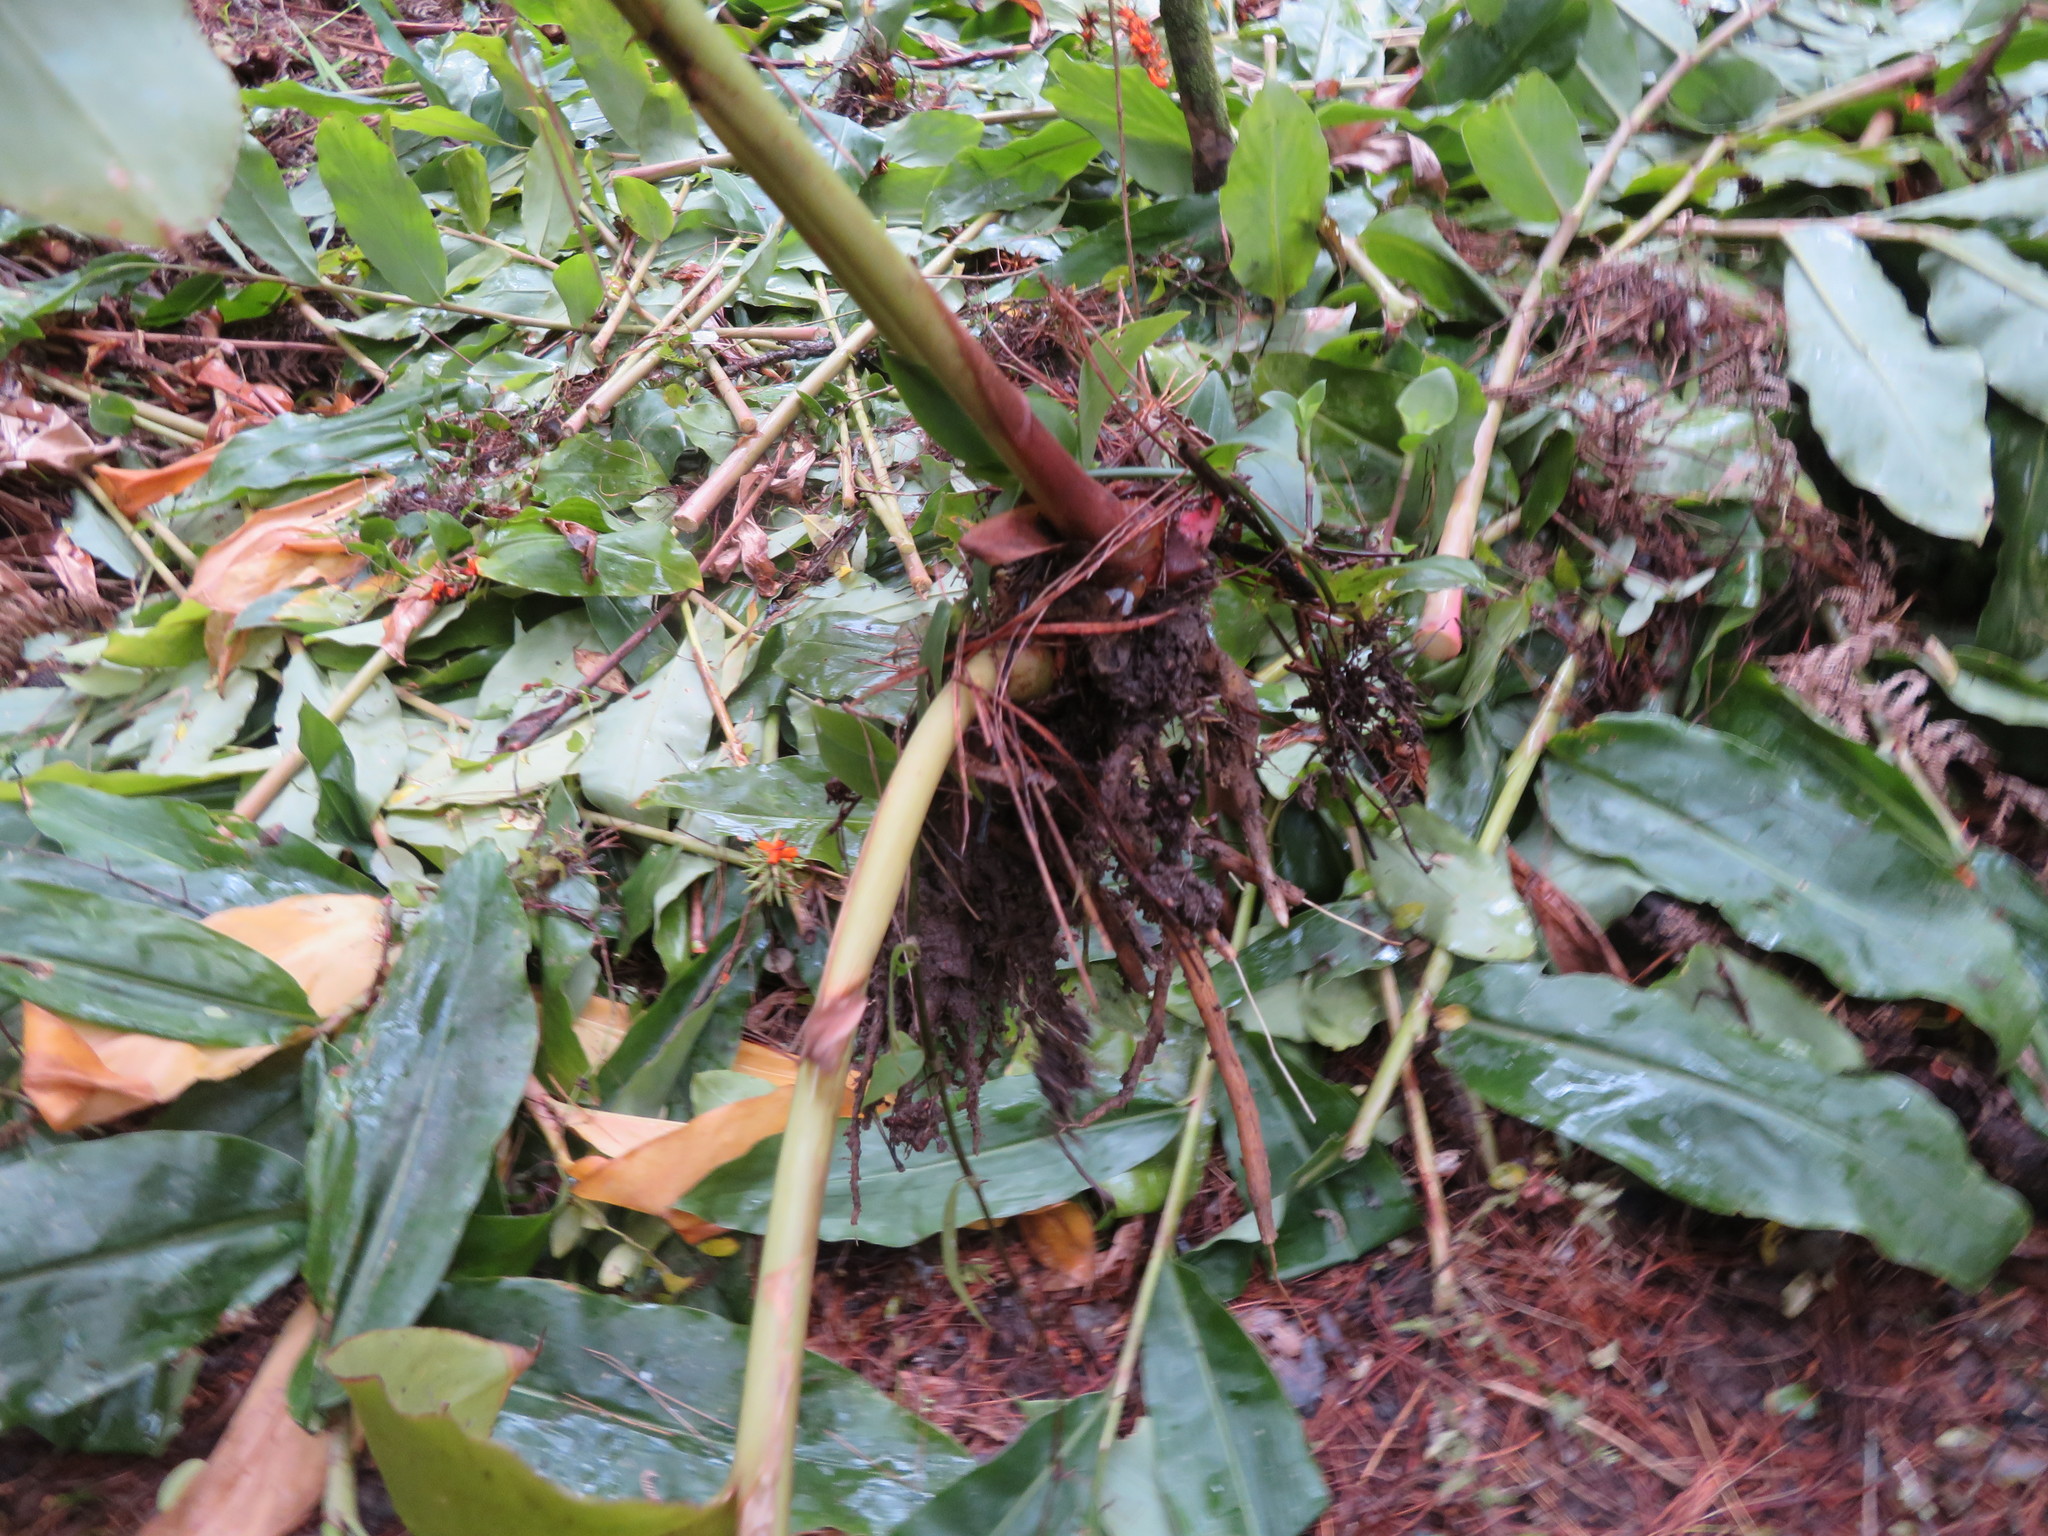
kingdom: Plantae
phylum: Tracheophyta
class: Liliopsida
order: Zingiberales
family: Zingiberaceae
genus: Hedychium
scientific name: Hedychium gardnerianum
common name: Himalayan ginger
